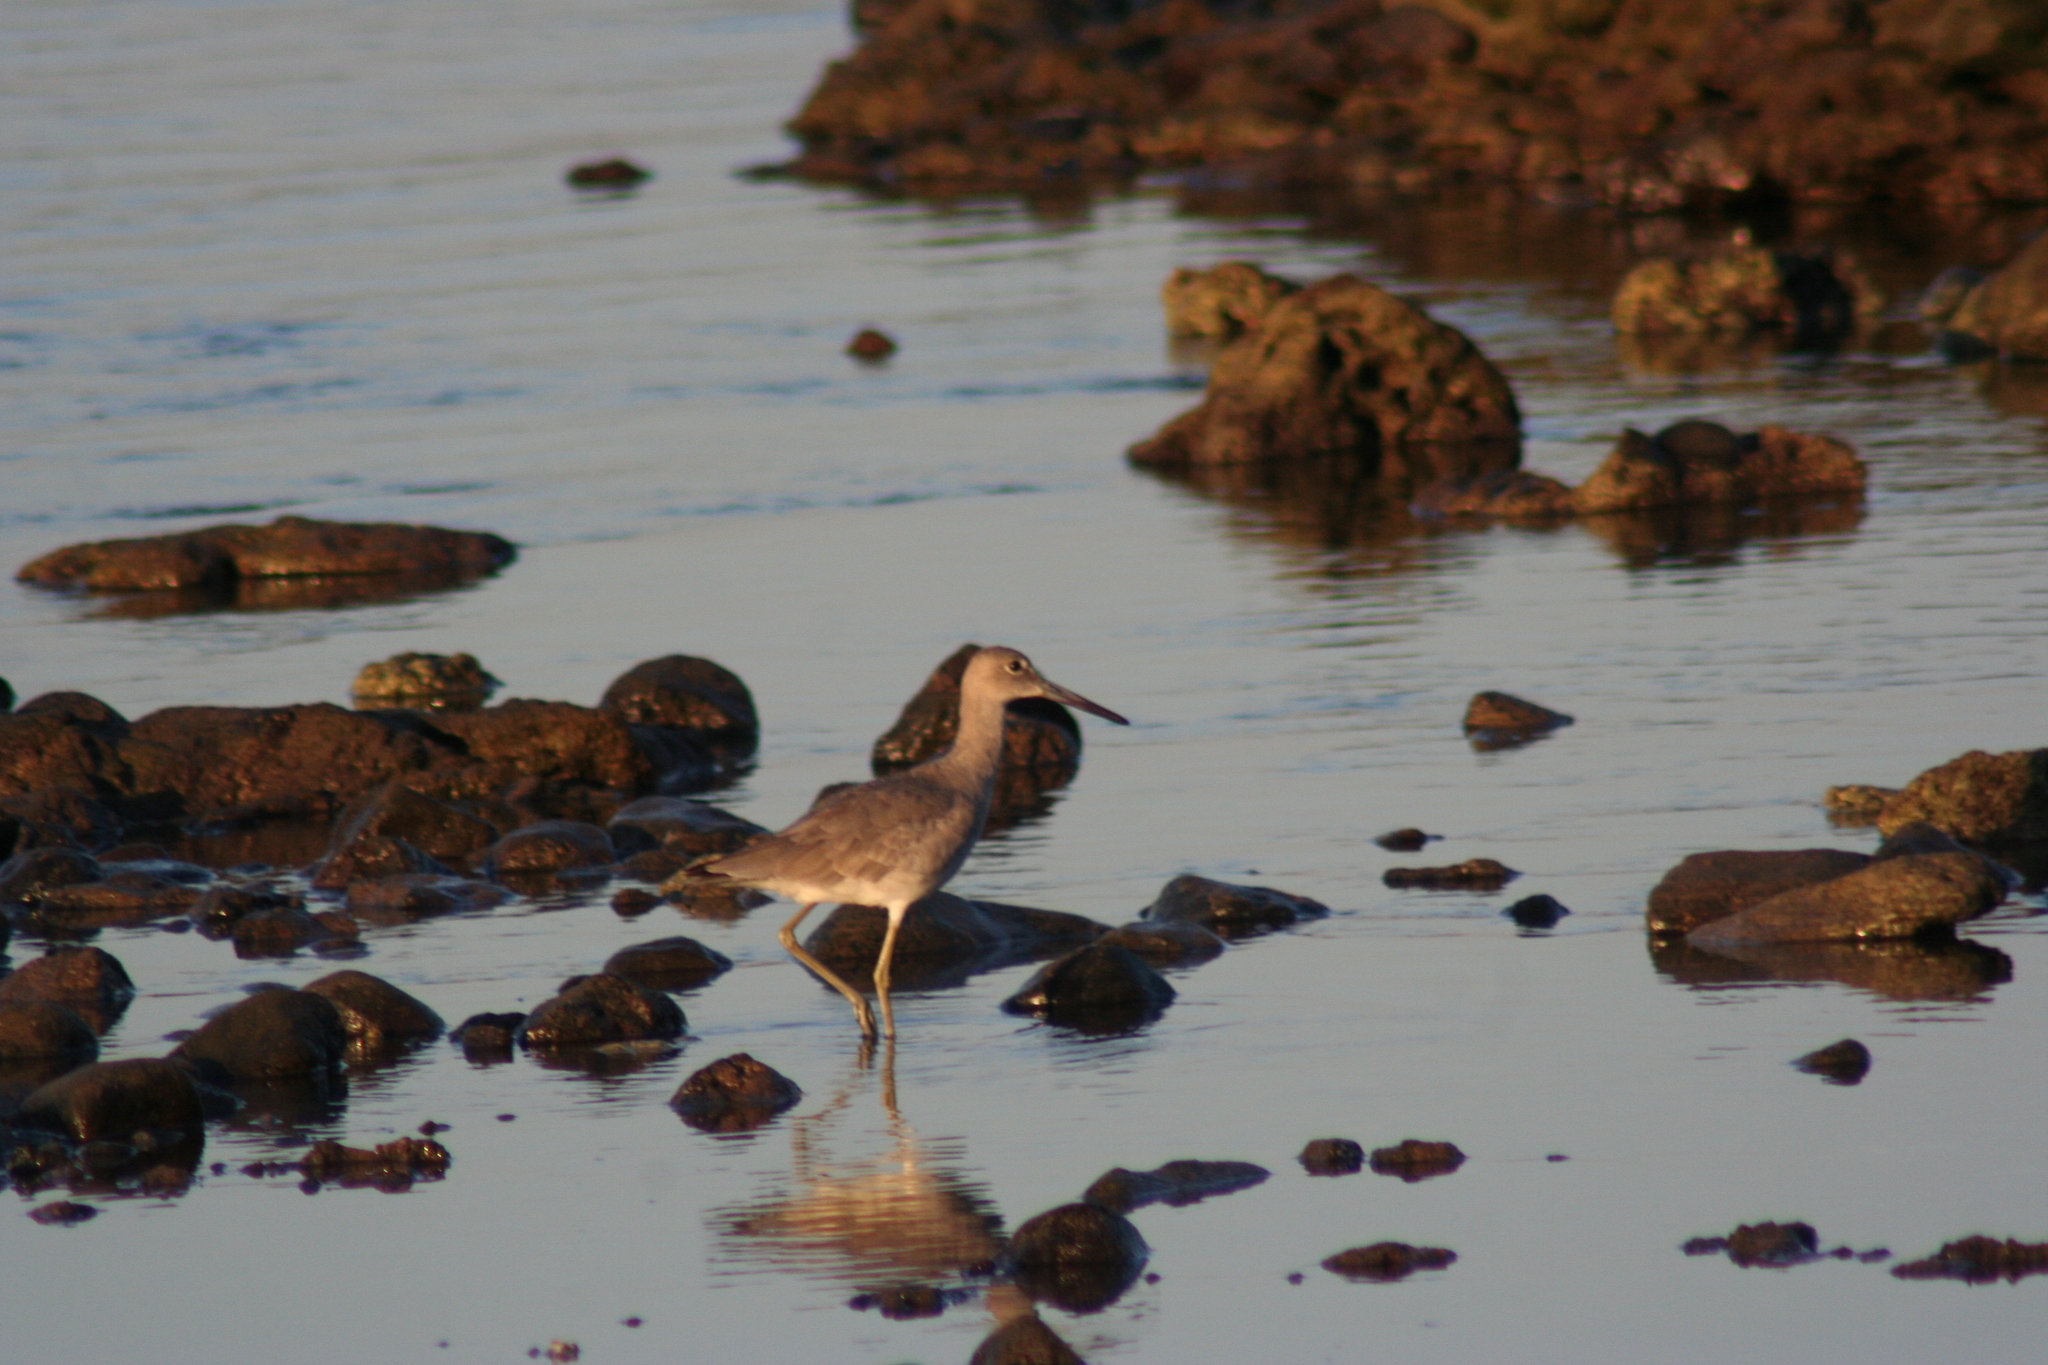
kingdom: Animalia
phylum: Chordata
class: Aves
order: Charadriiformes
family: Scolopacidae
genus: Tringa
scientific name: Tringa semipalmata
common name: Willet
